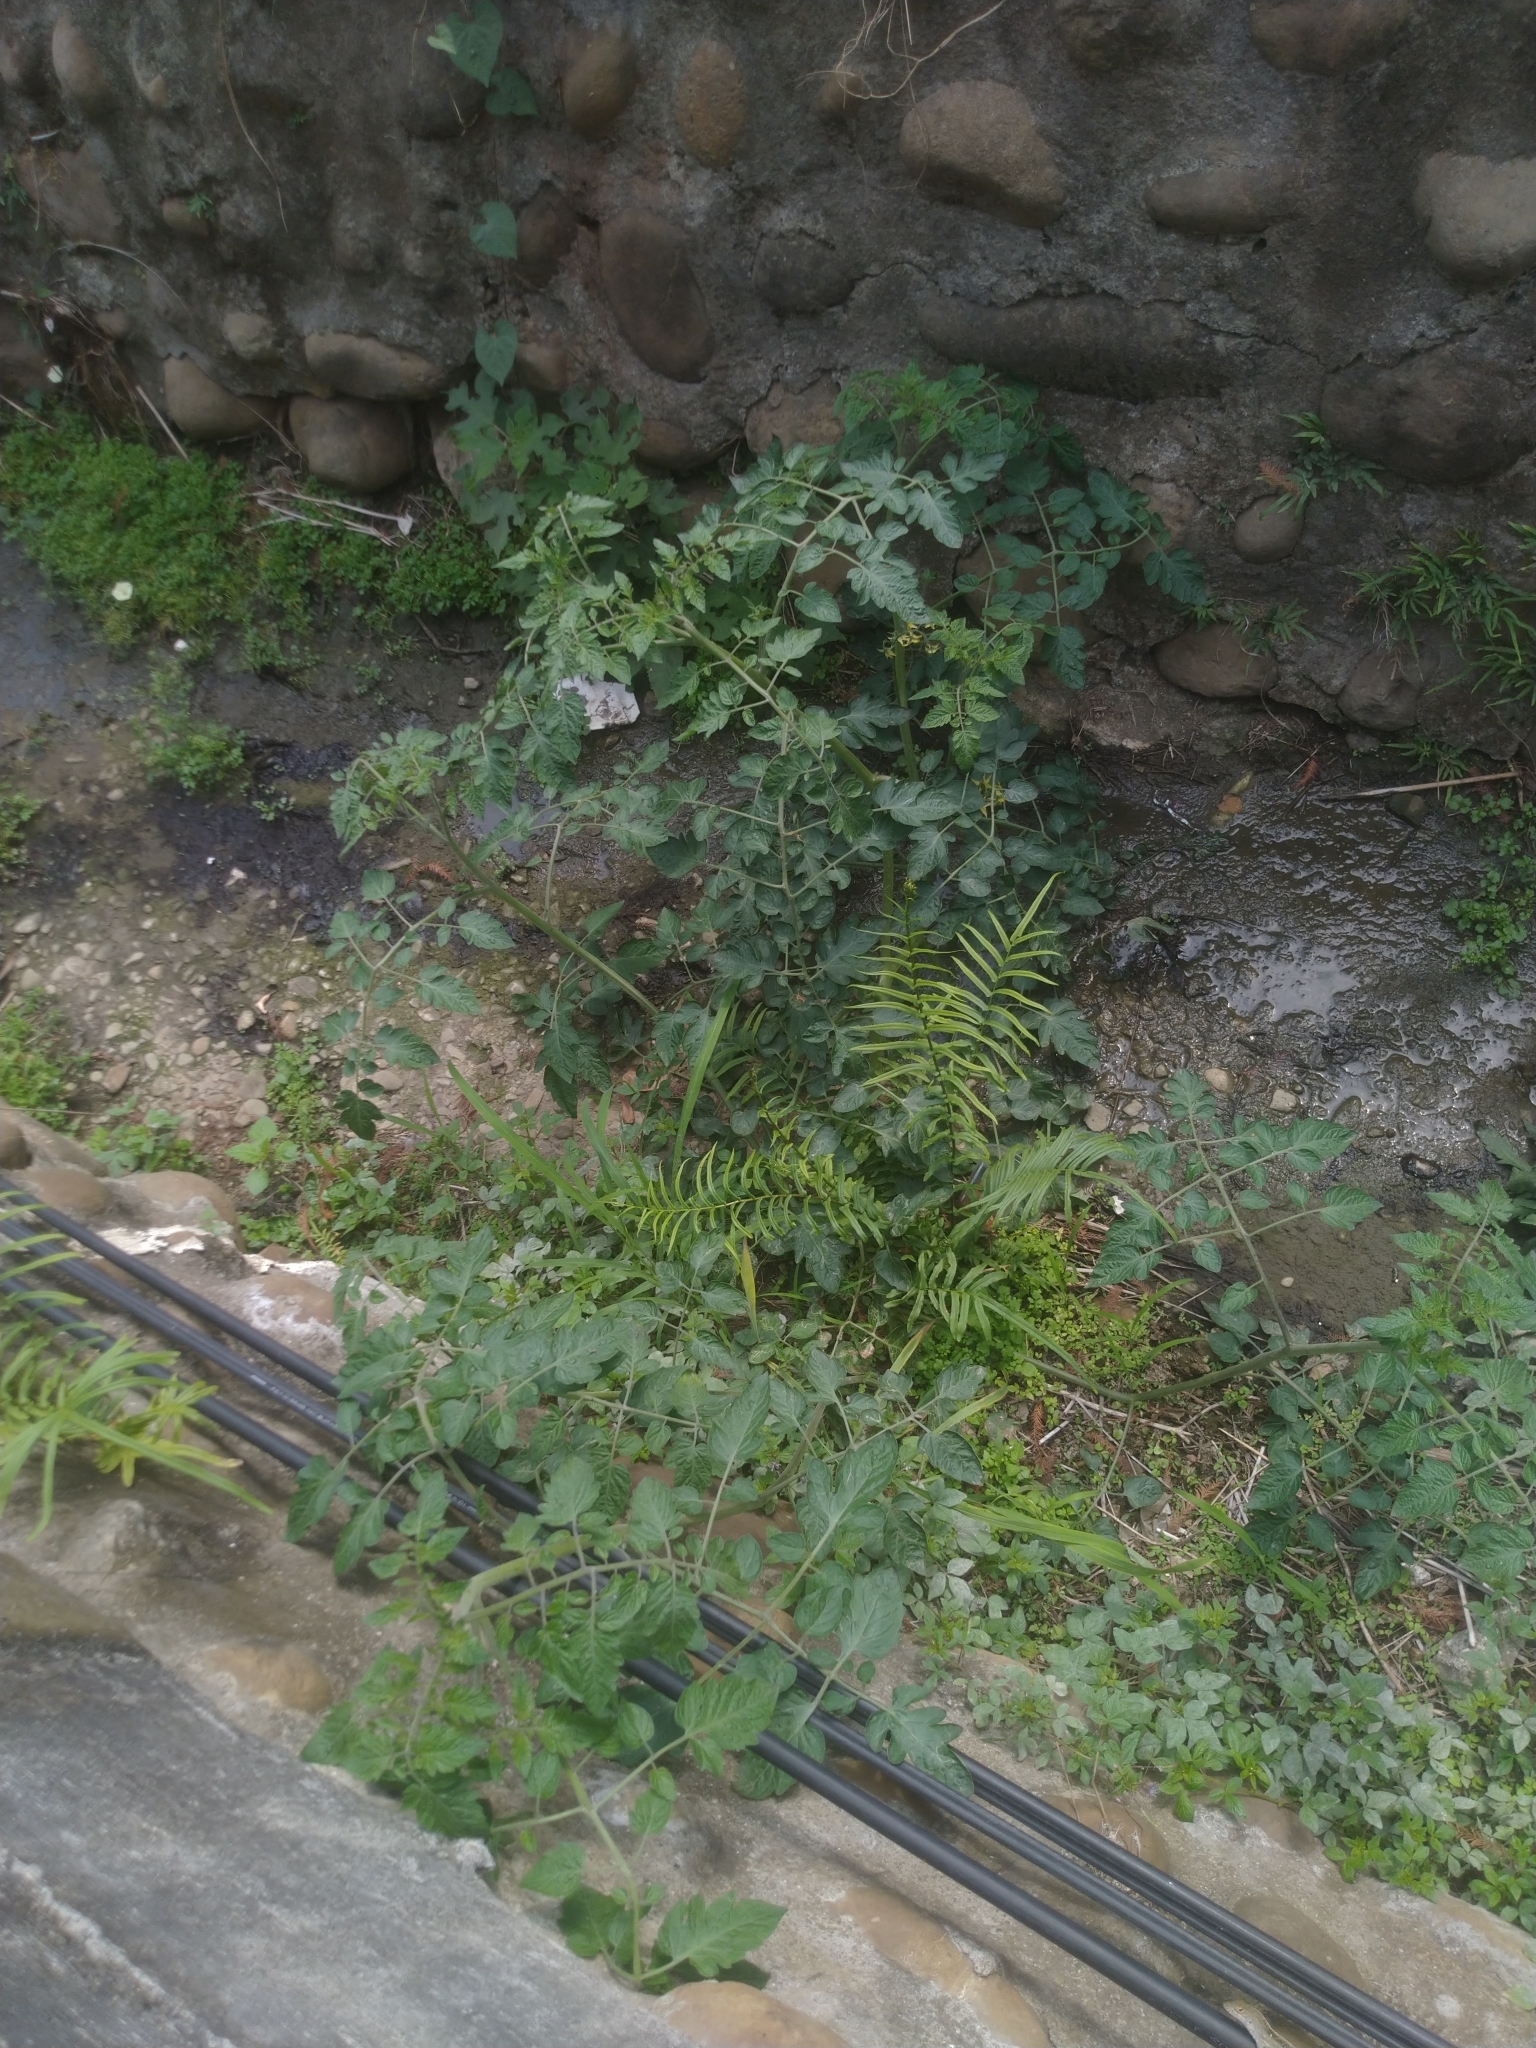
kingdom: Plantae
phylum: Tracheophyta
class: Magnoliopsida
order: Solanales
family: Solanaceae
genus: Solanum
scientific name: Solanum lycopersicum
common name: Garden tomato
